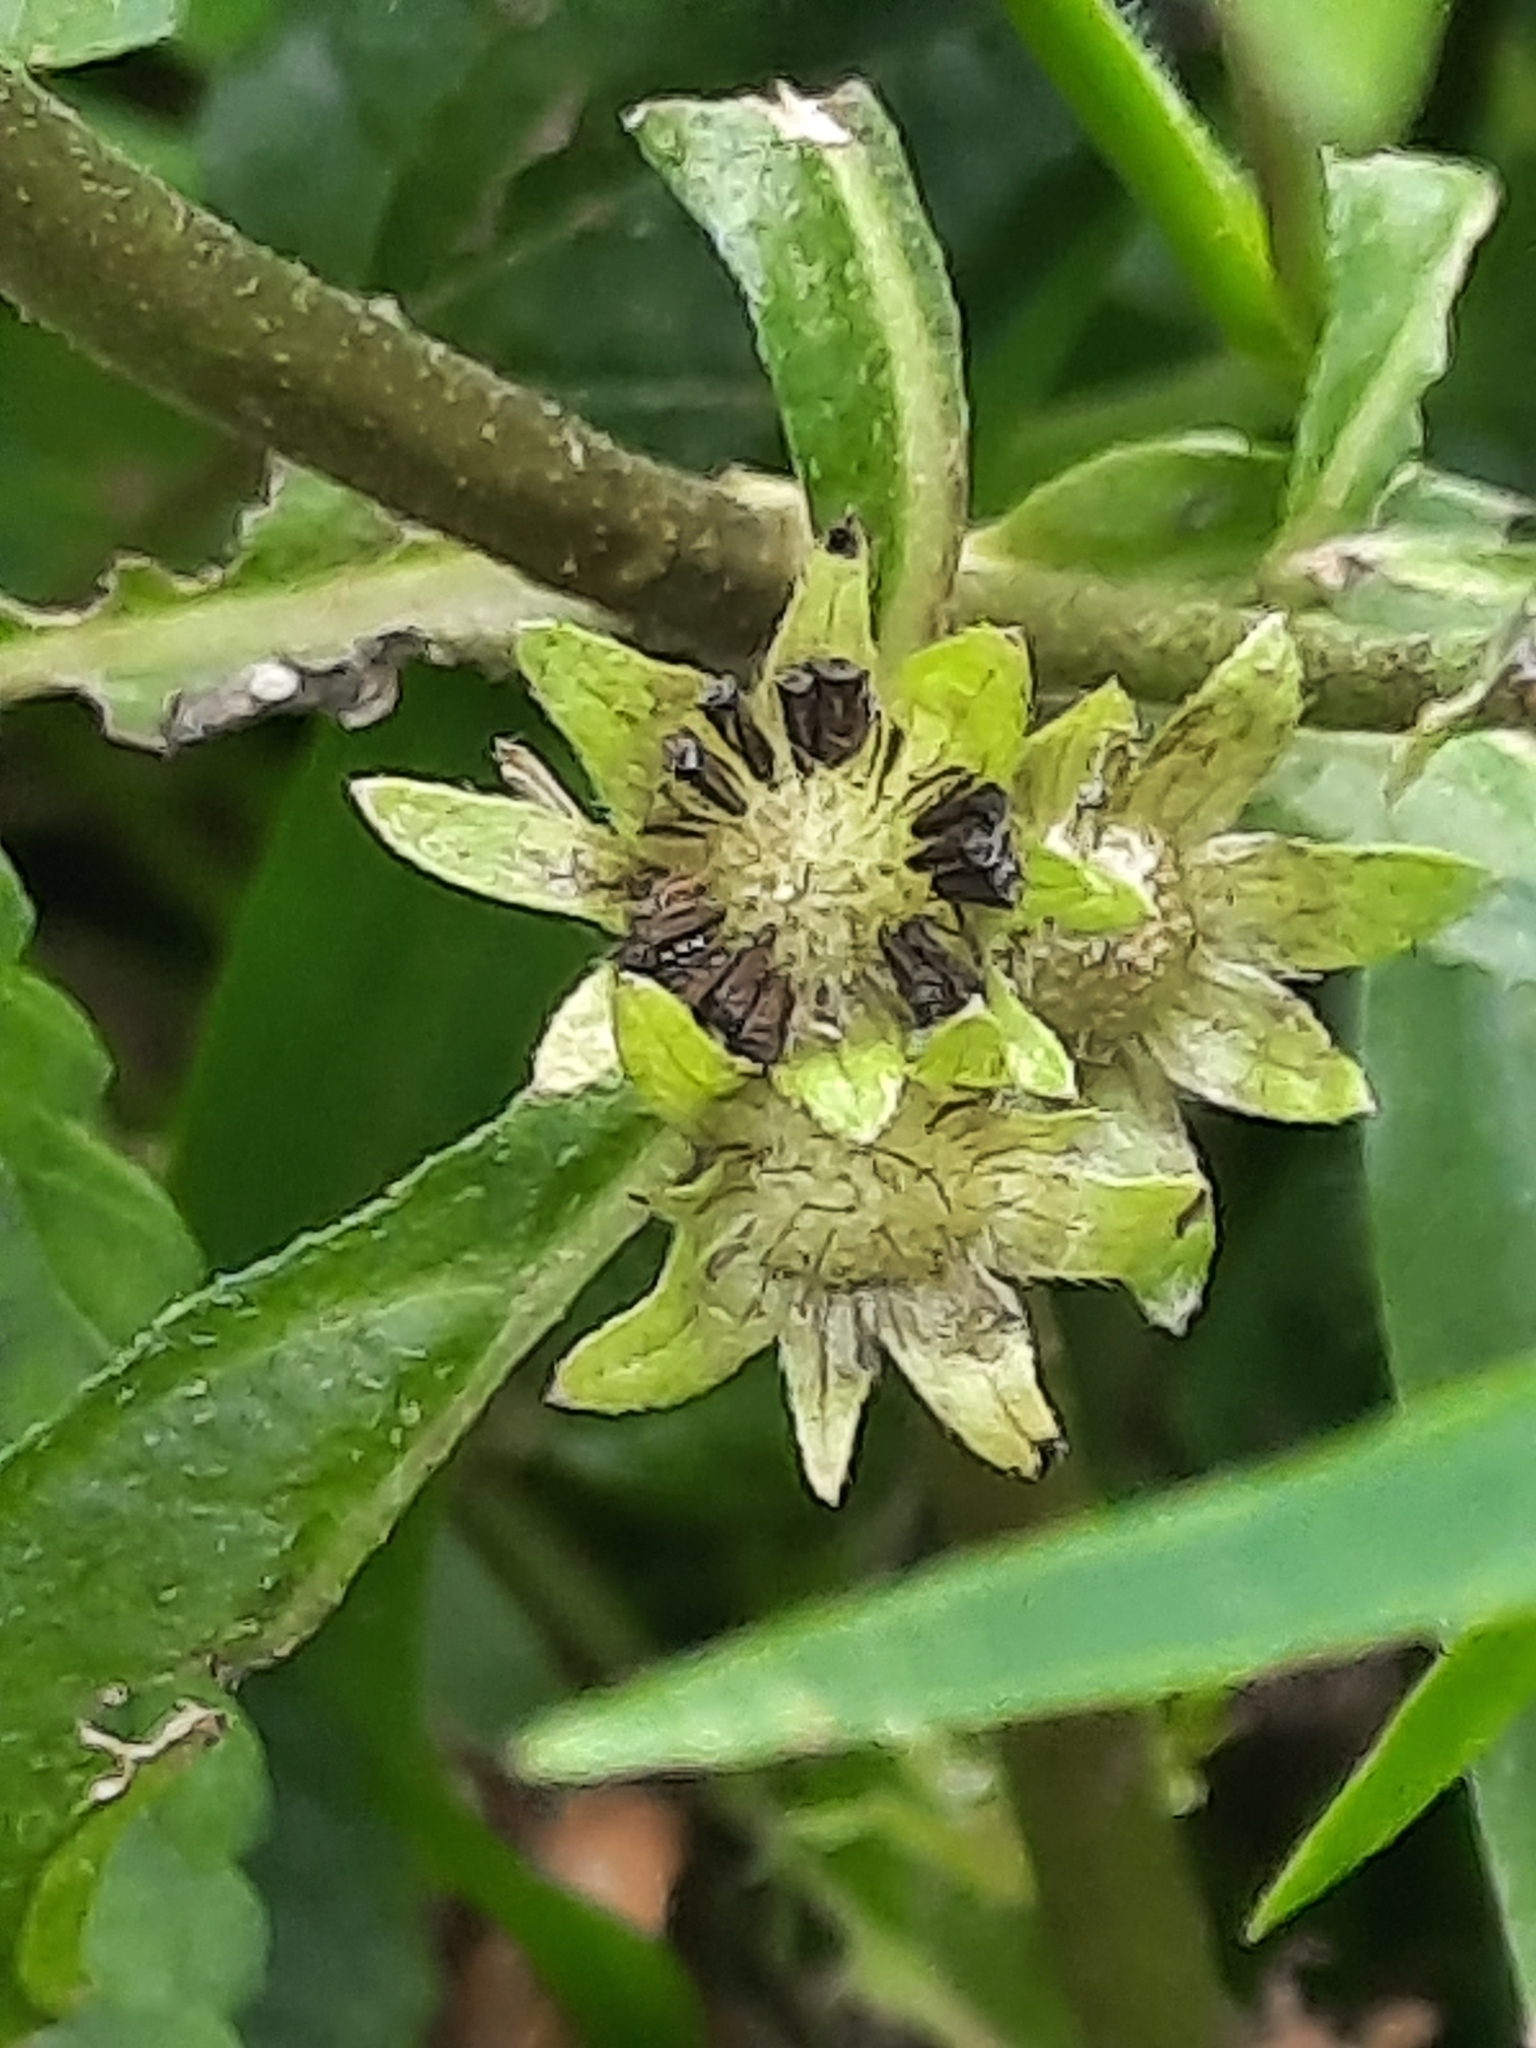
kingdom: Plantae
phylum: Tracheophyta
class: Magnoliopsida
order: Asterales
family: Asteraceae
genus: Eclipta
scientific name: Eclipta prostrata
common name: False daisy
